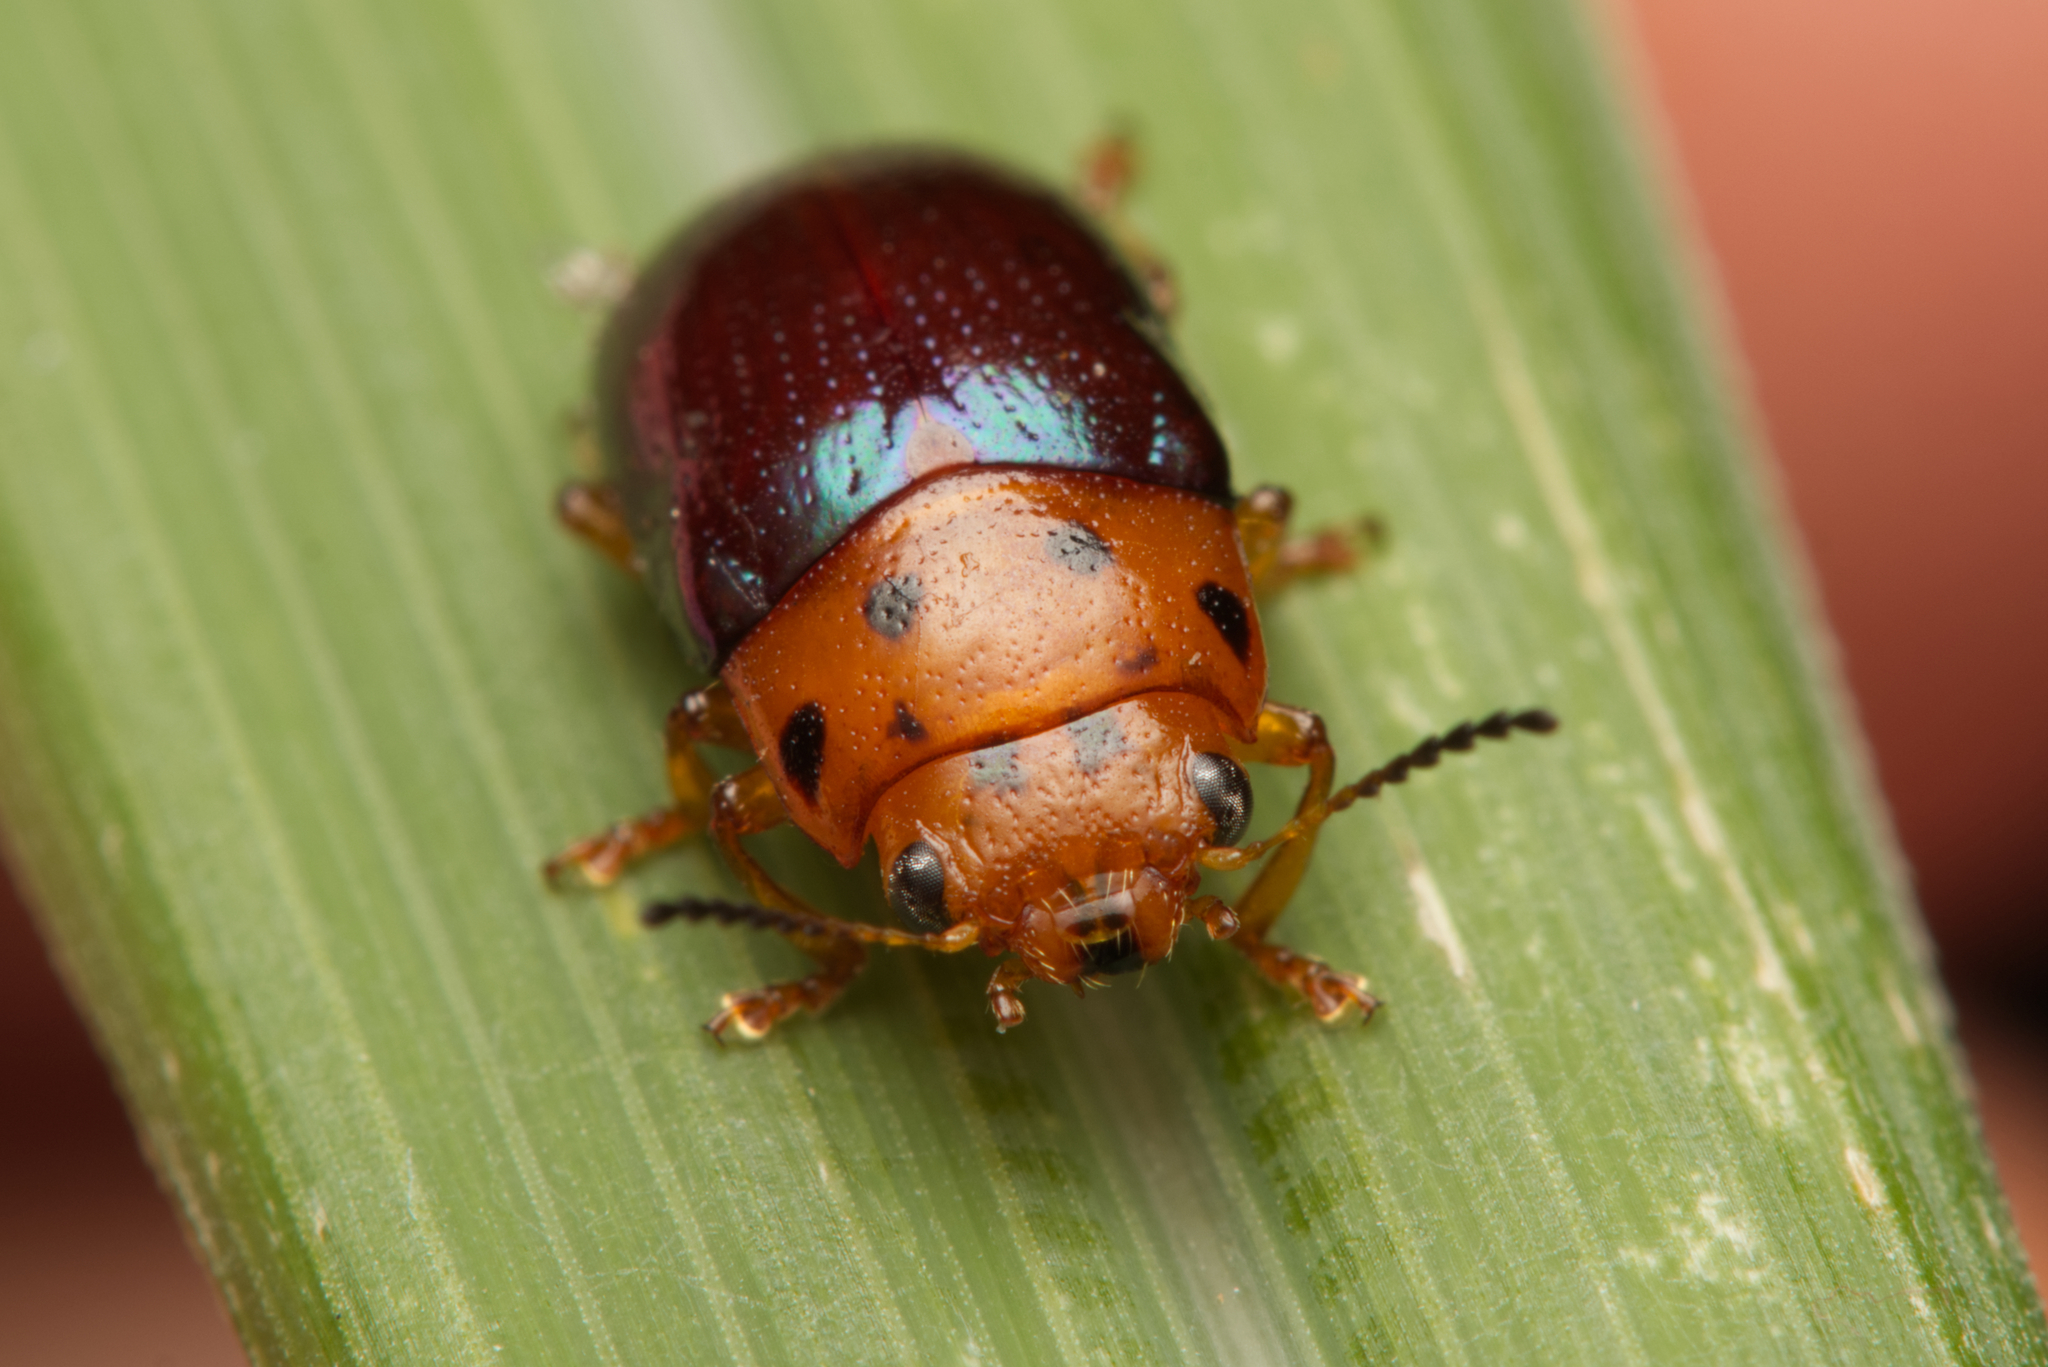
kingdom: Animalia
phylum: Arthropoda
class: Insecta
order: Coleoptera
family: Chrysomelidae
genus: Platymela
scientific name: Platymela
